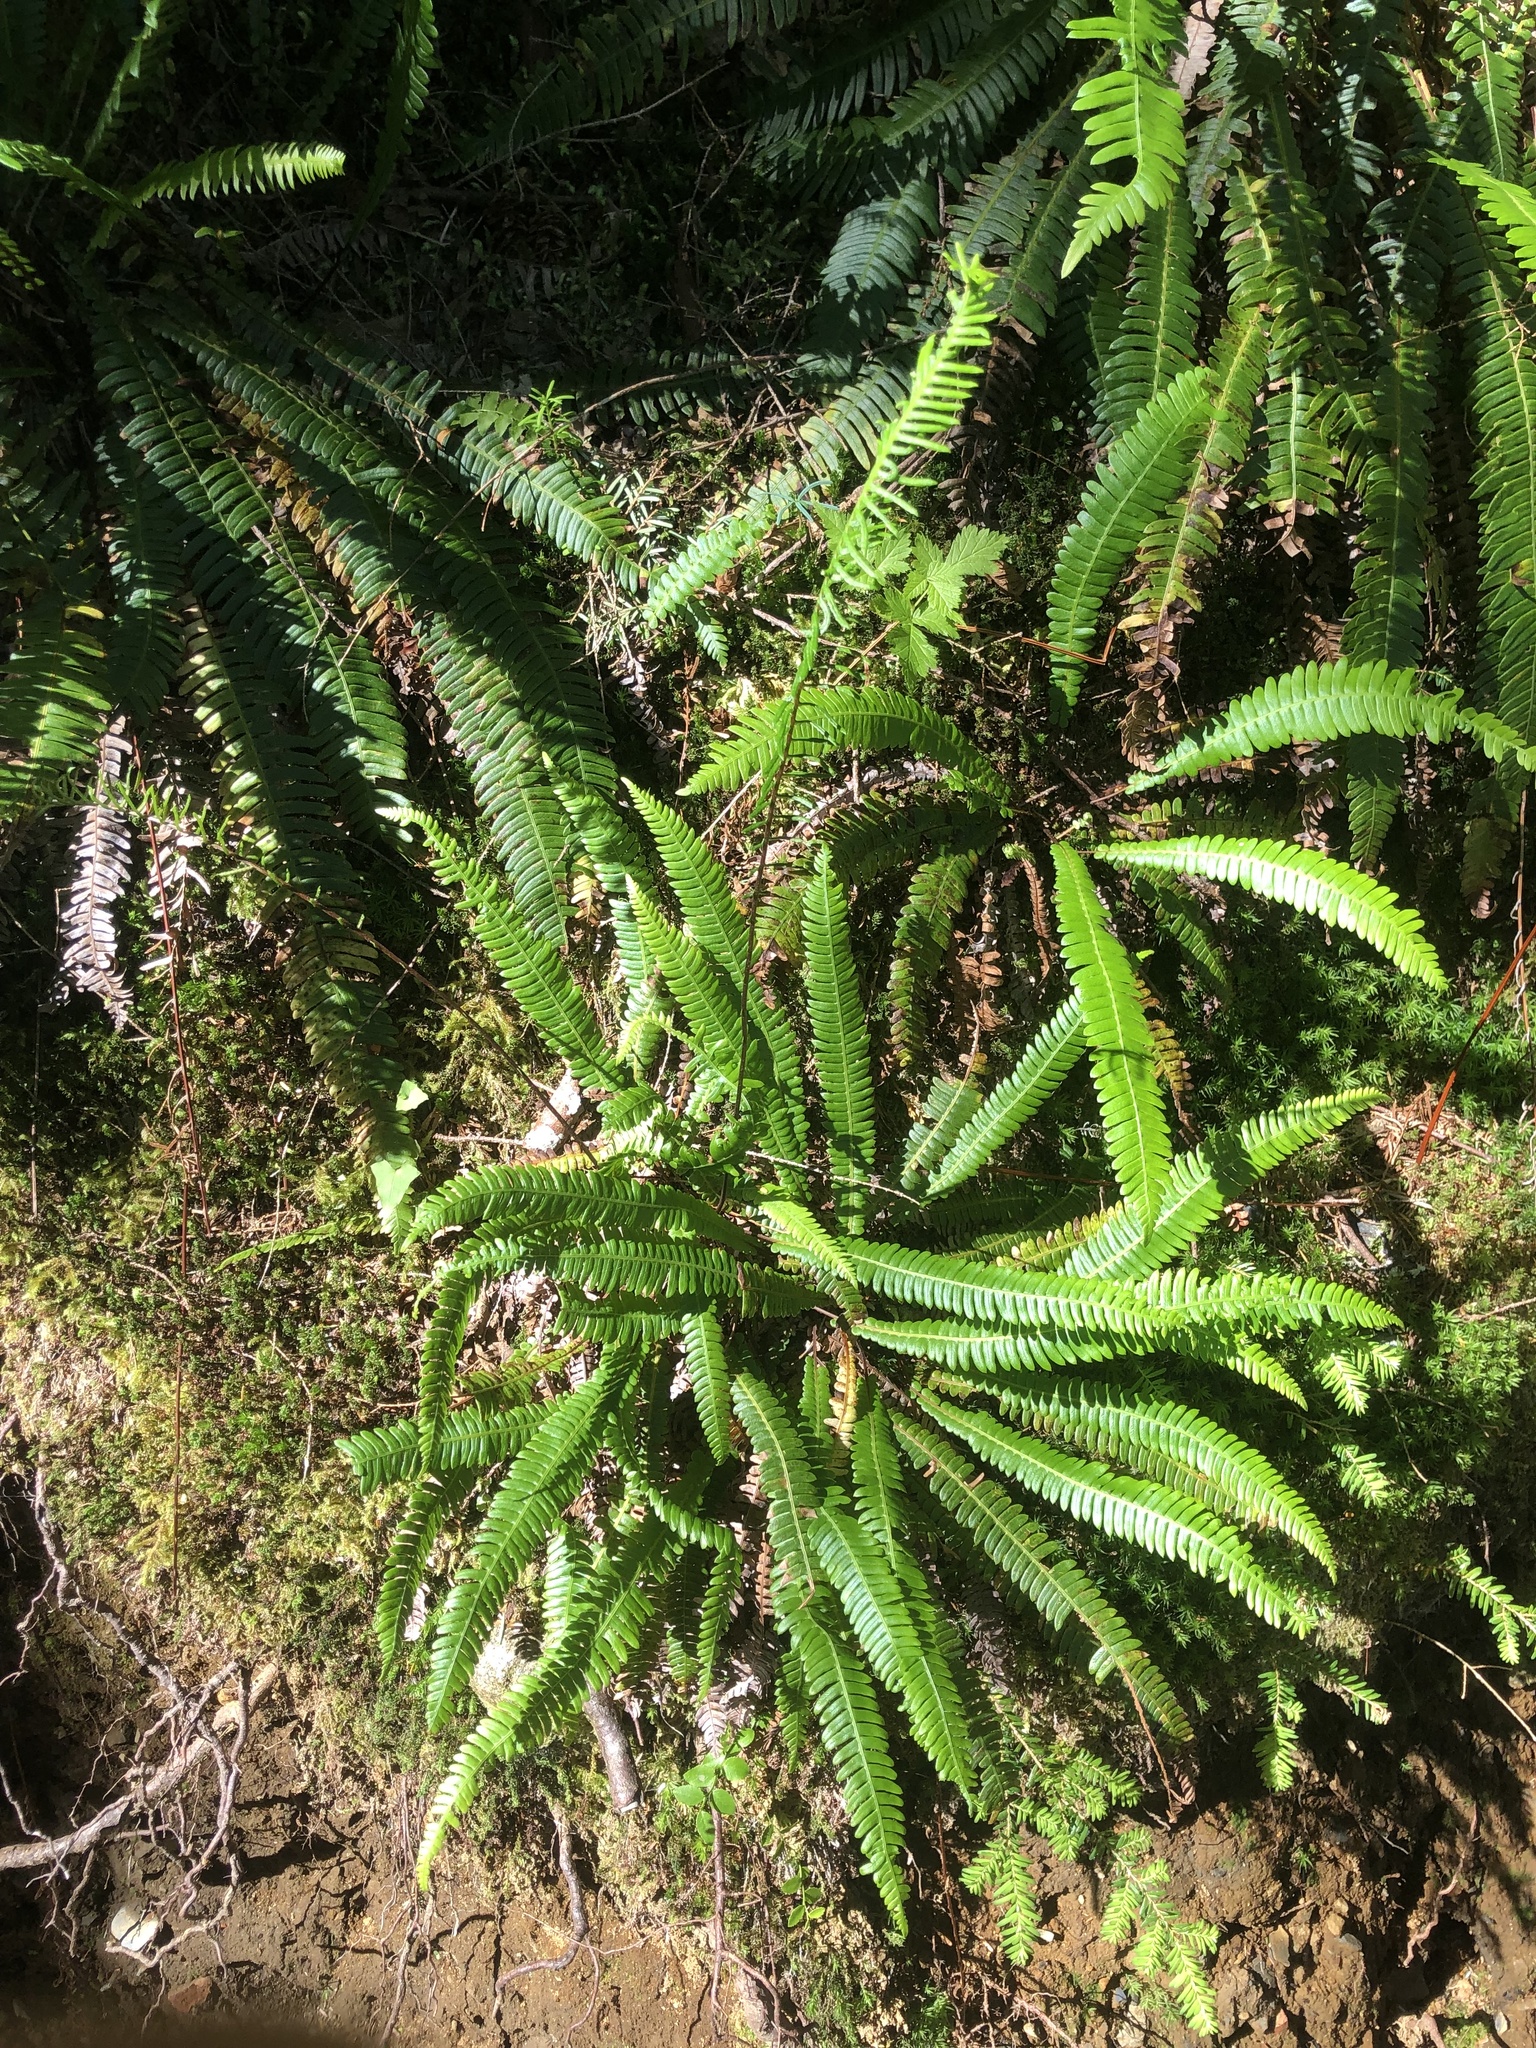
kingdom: Plantae
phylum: Tracheophyta
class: Polypodiopsida
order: Polypodiales
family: Blechnaceae
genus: Struthiopteris
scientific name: Struthiopteris spicant
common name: Deer fern
